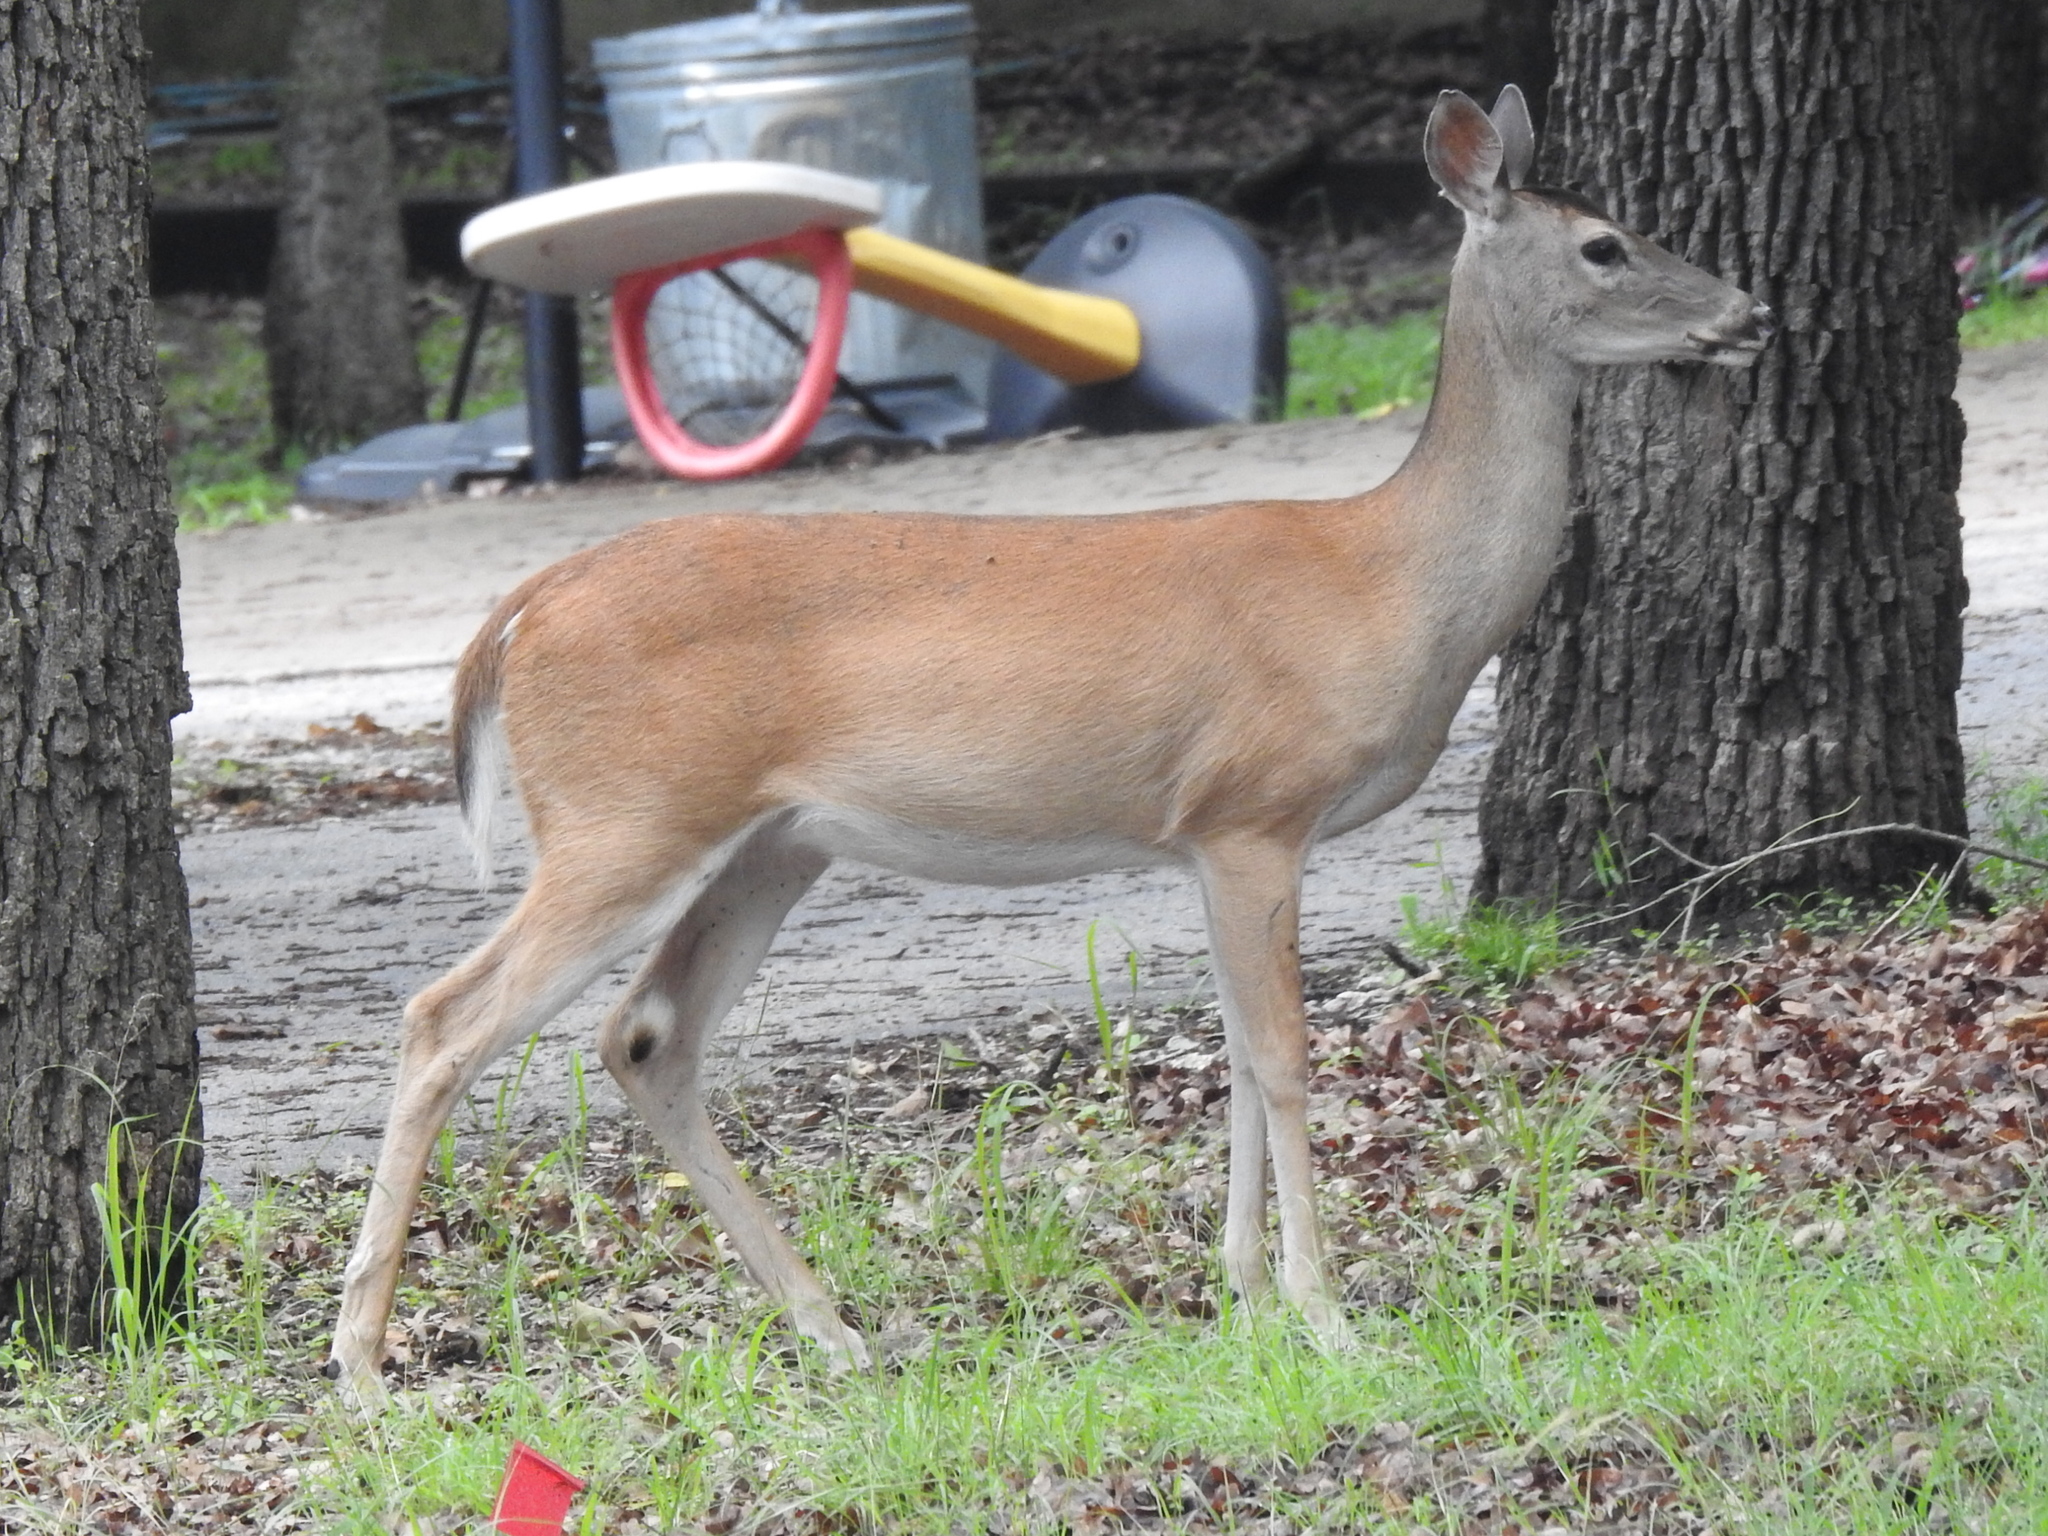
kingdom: Animalia
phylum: Chordata
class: Mammalia
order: Artiodactyla
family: Cervidae
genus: Odocoileus
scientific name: Odocoileus virginianus
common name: White-tailed deer
